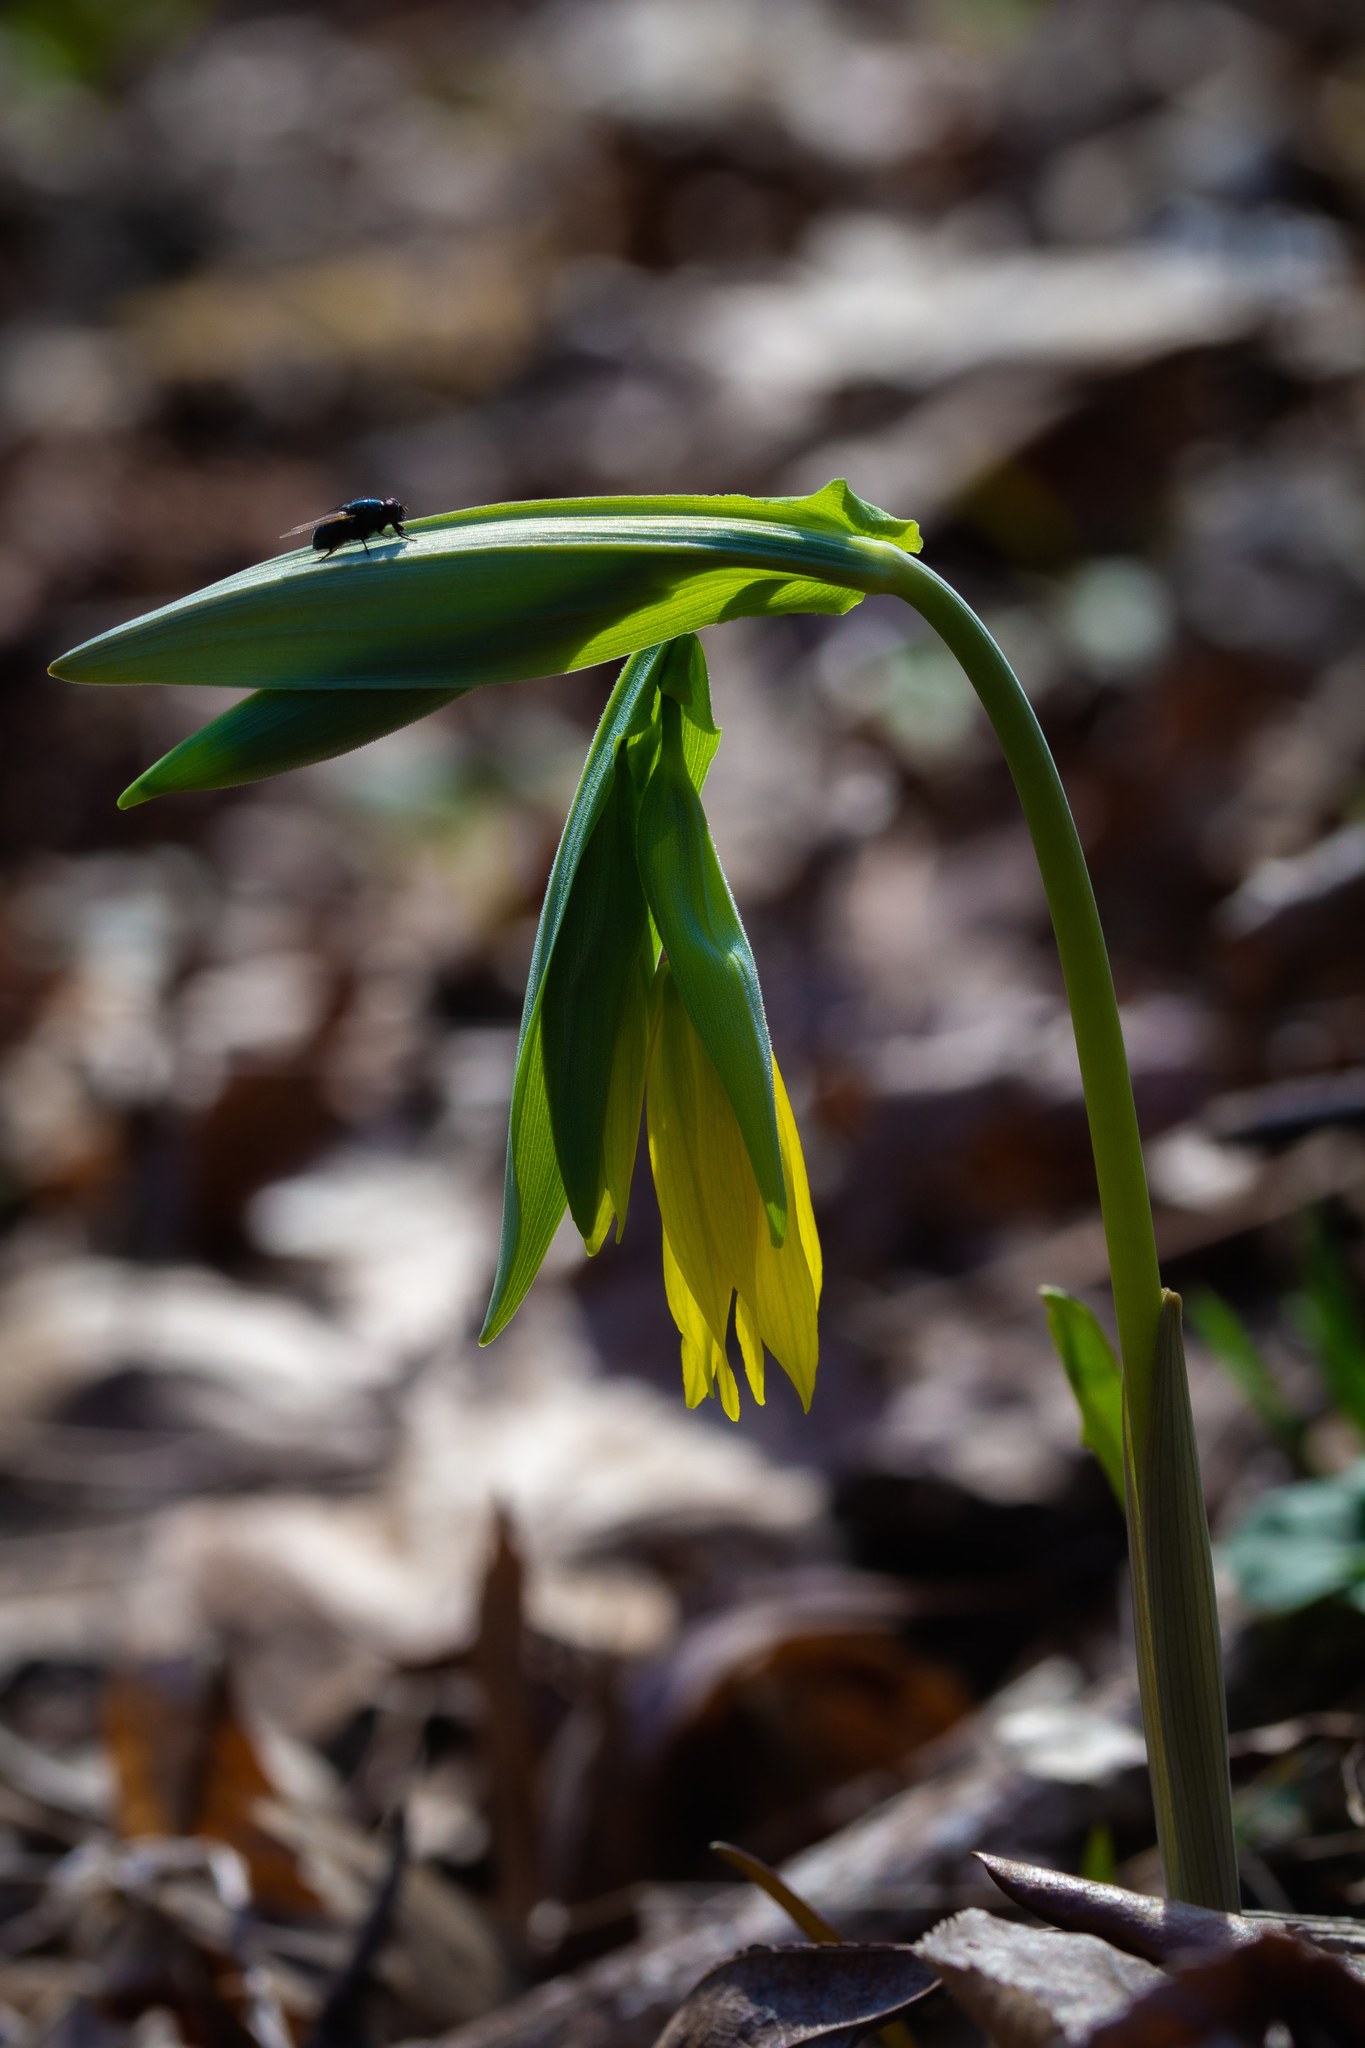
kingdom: Plantae
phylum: Tracheophyta
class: Liliopsida
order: Liliales
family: Colchicaceae
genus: Uvularia
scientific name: Uvularia grandiflora
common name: Bellwort
